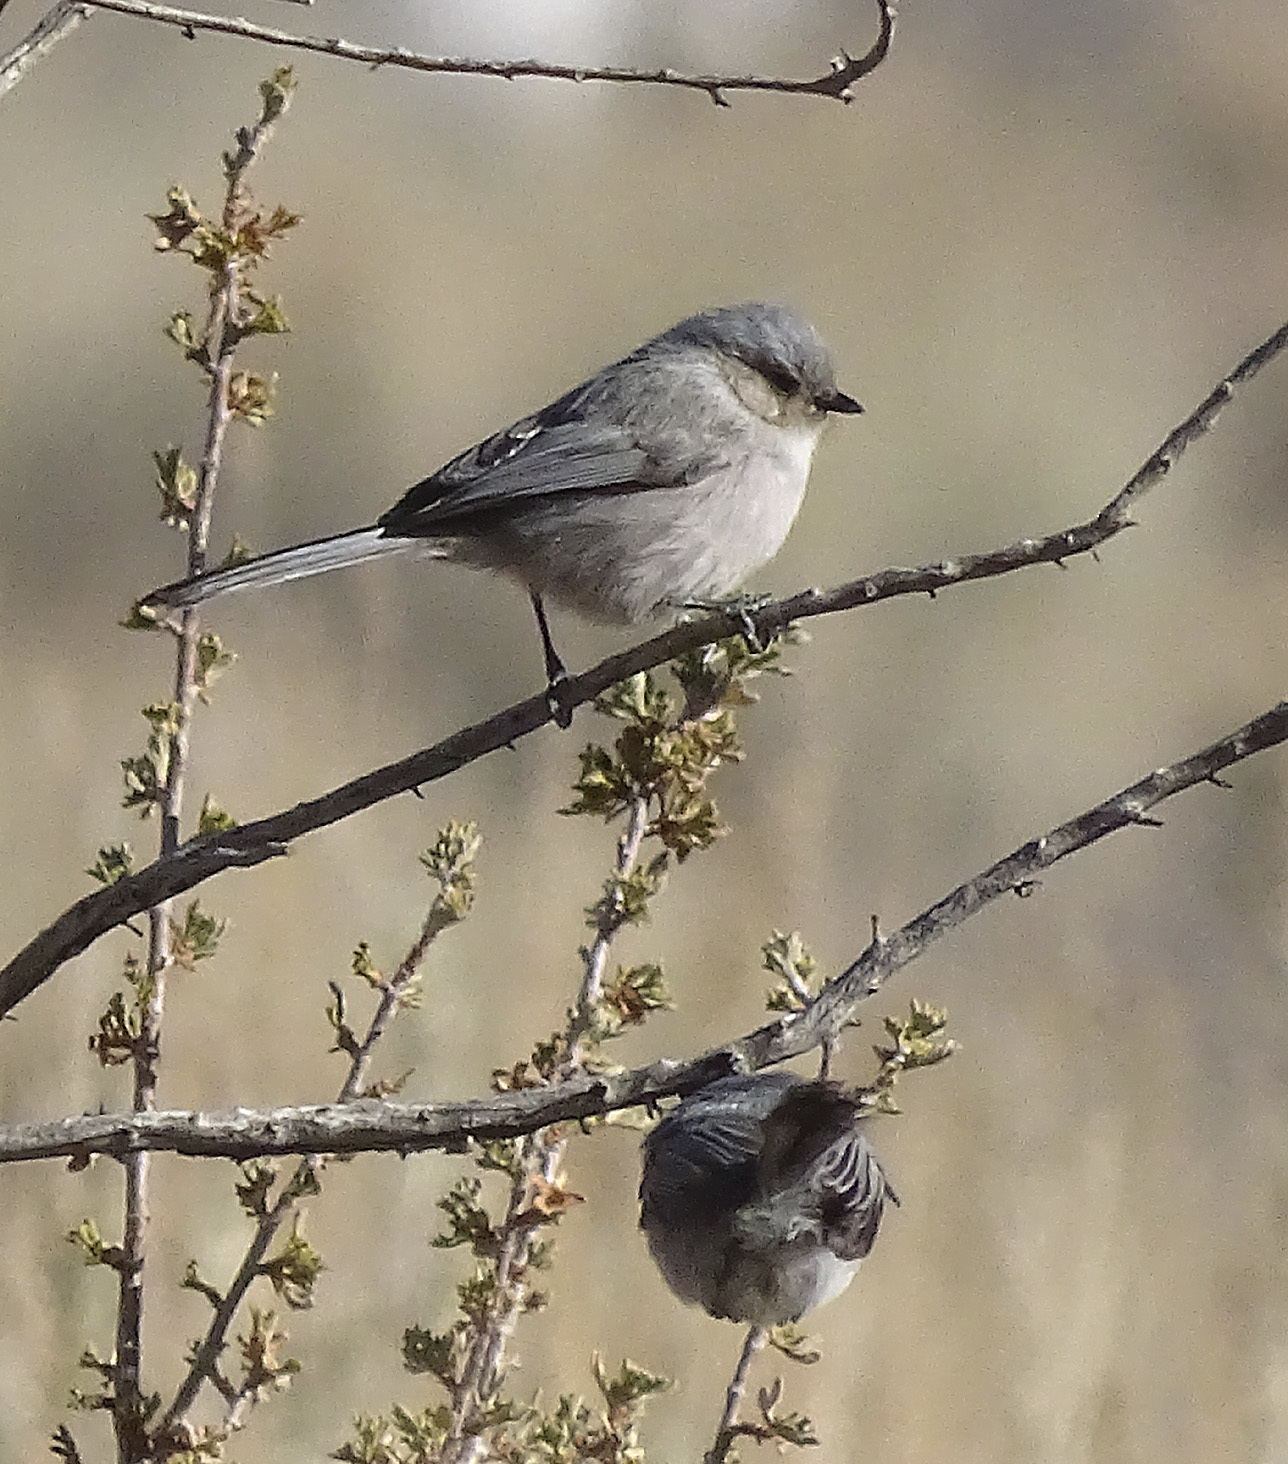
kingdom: Animalia
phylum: Chordata
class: Aves
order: Passeriformes
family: Aegithalidae
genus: Psaltriparus
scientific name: Psaltriparus minimus
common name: American bushtit
